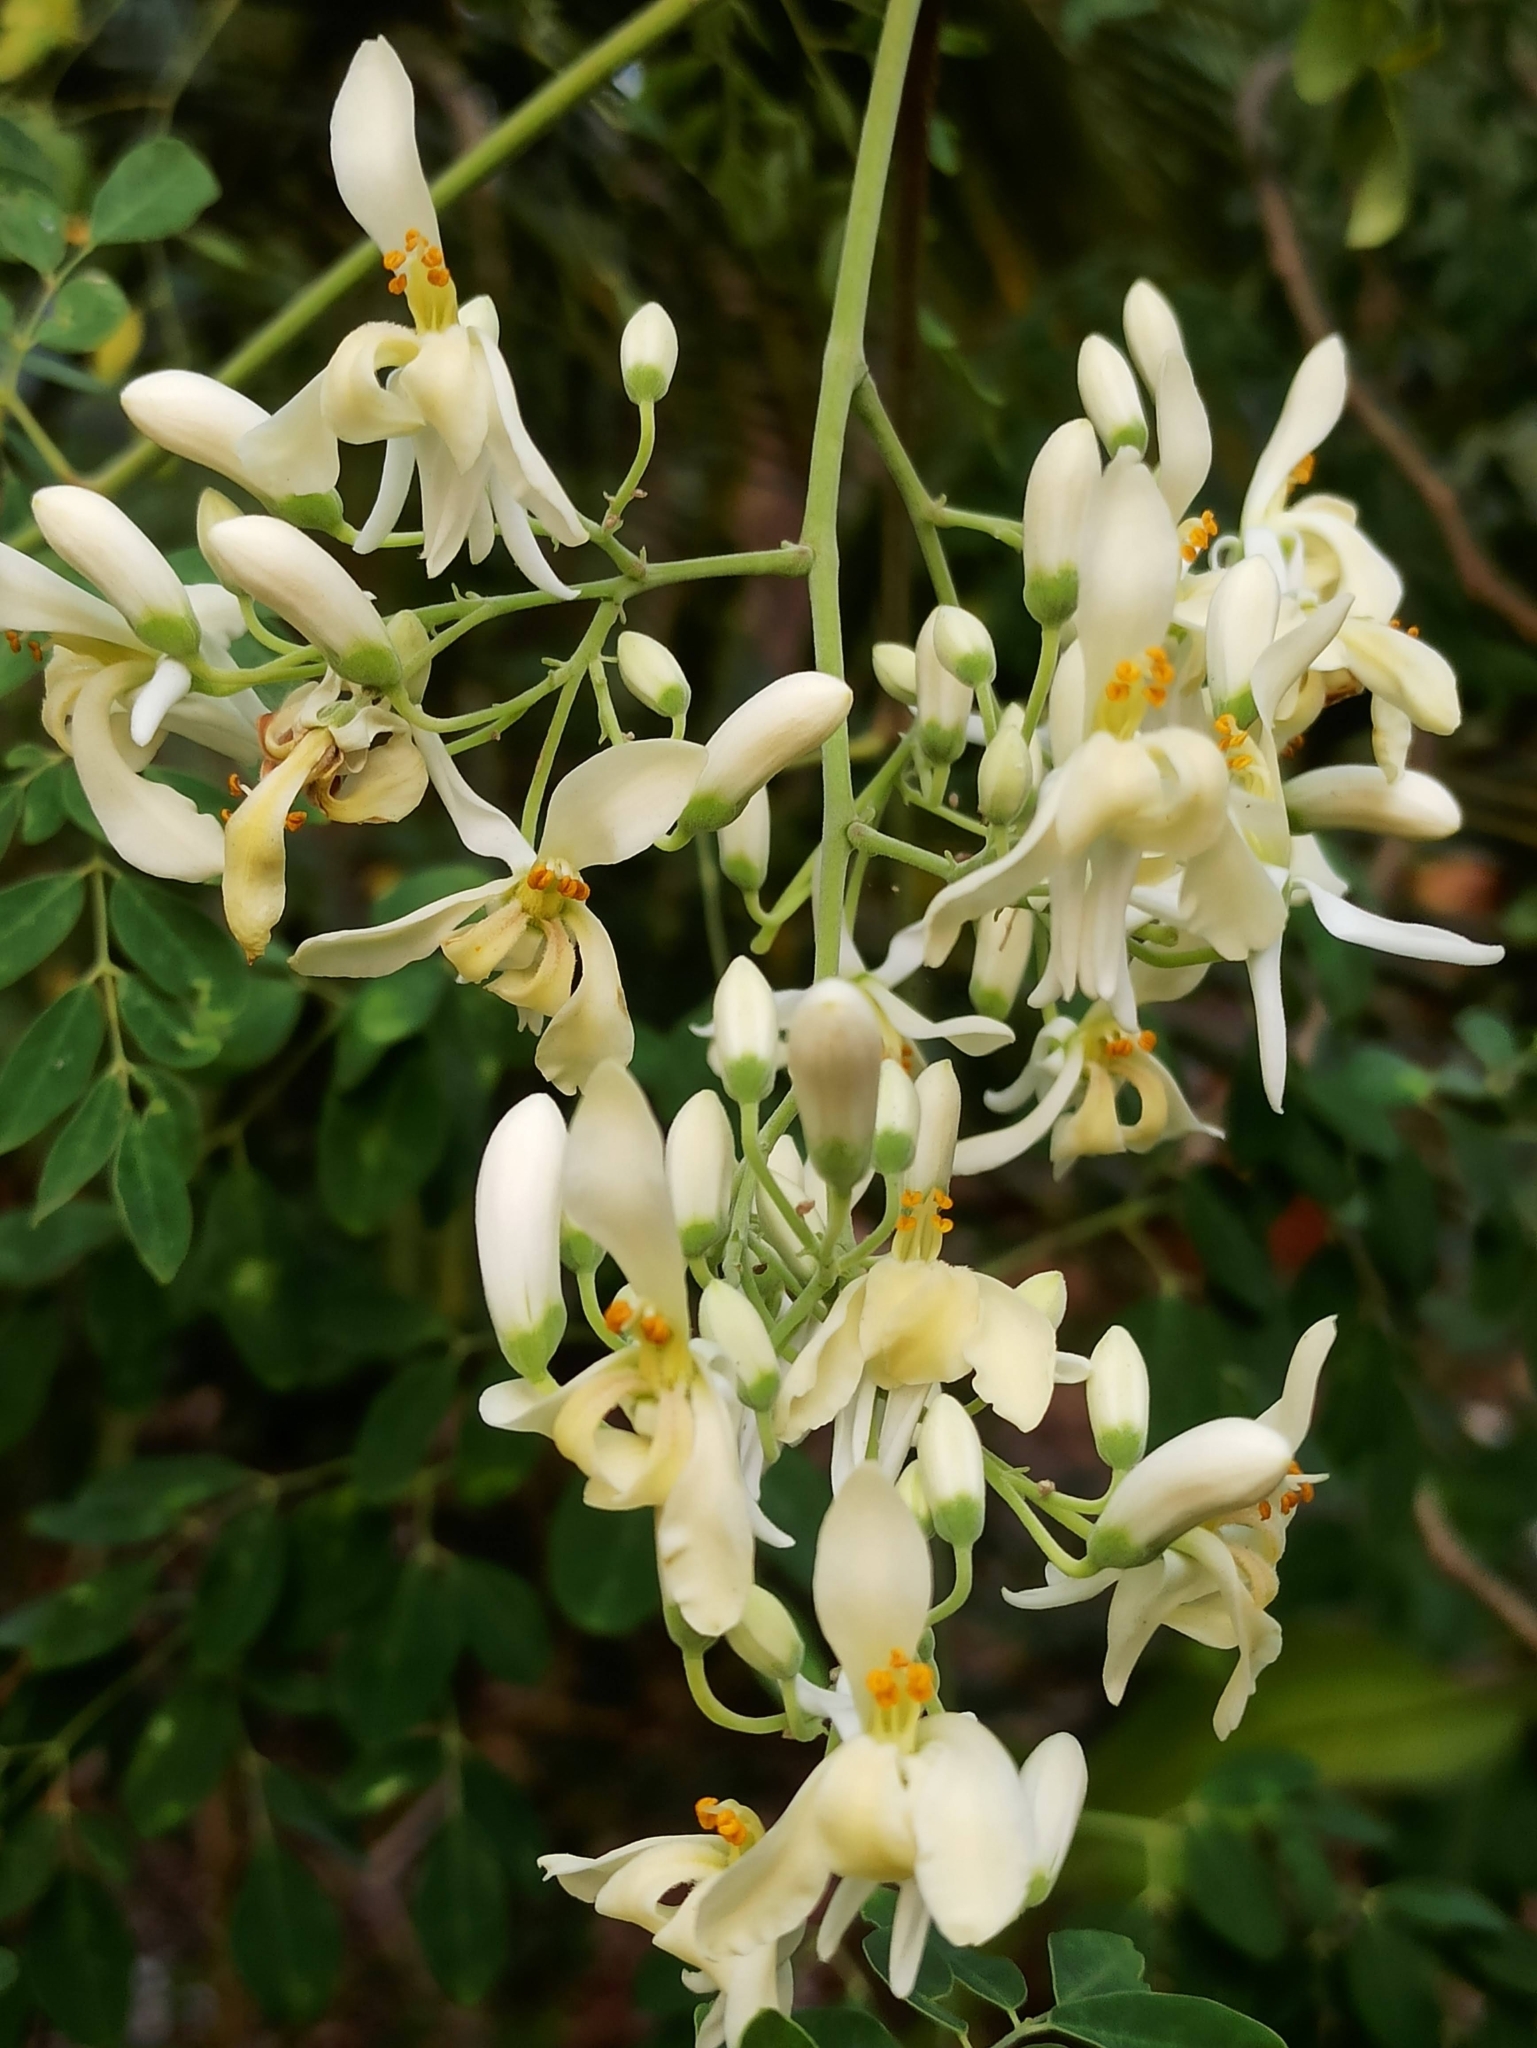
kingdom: Plantae
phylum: Tracheophyta
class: Magnoliopsida
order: Brassicales
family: Moringaceae
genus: Moringa
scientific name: Moringa oleifera
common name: Horseradish-tree
